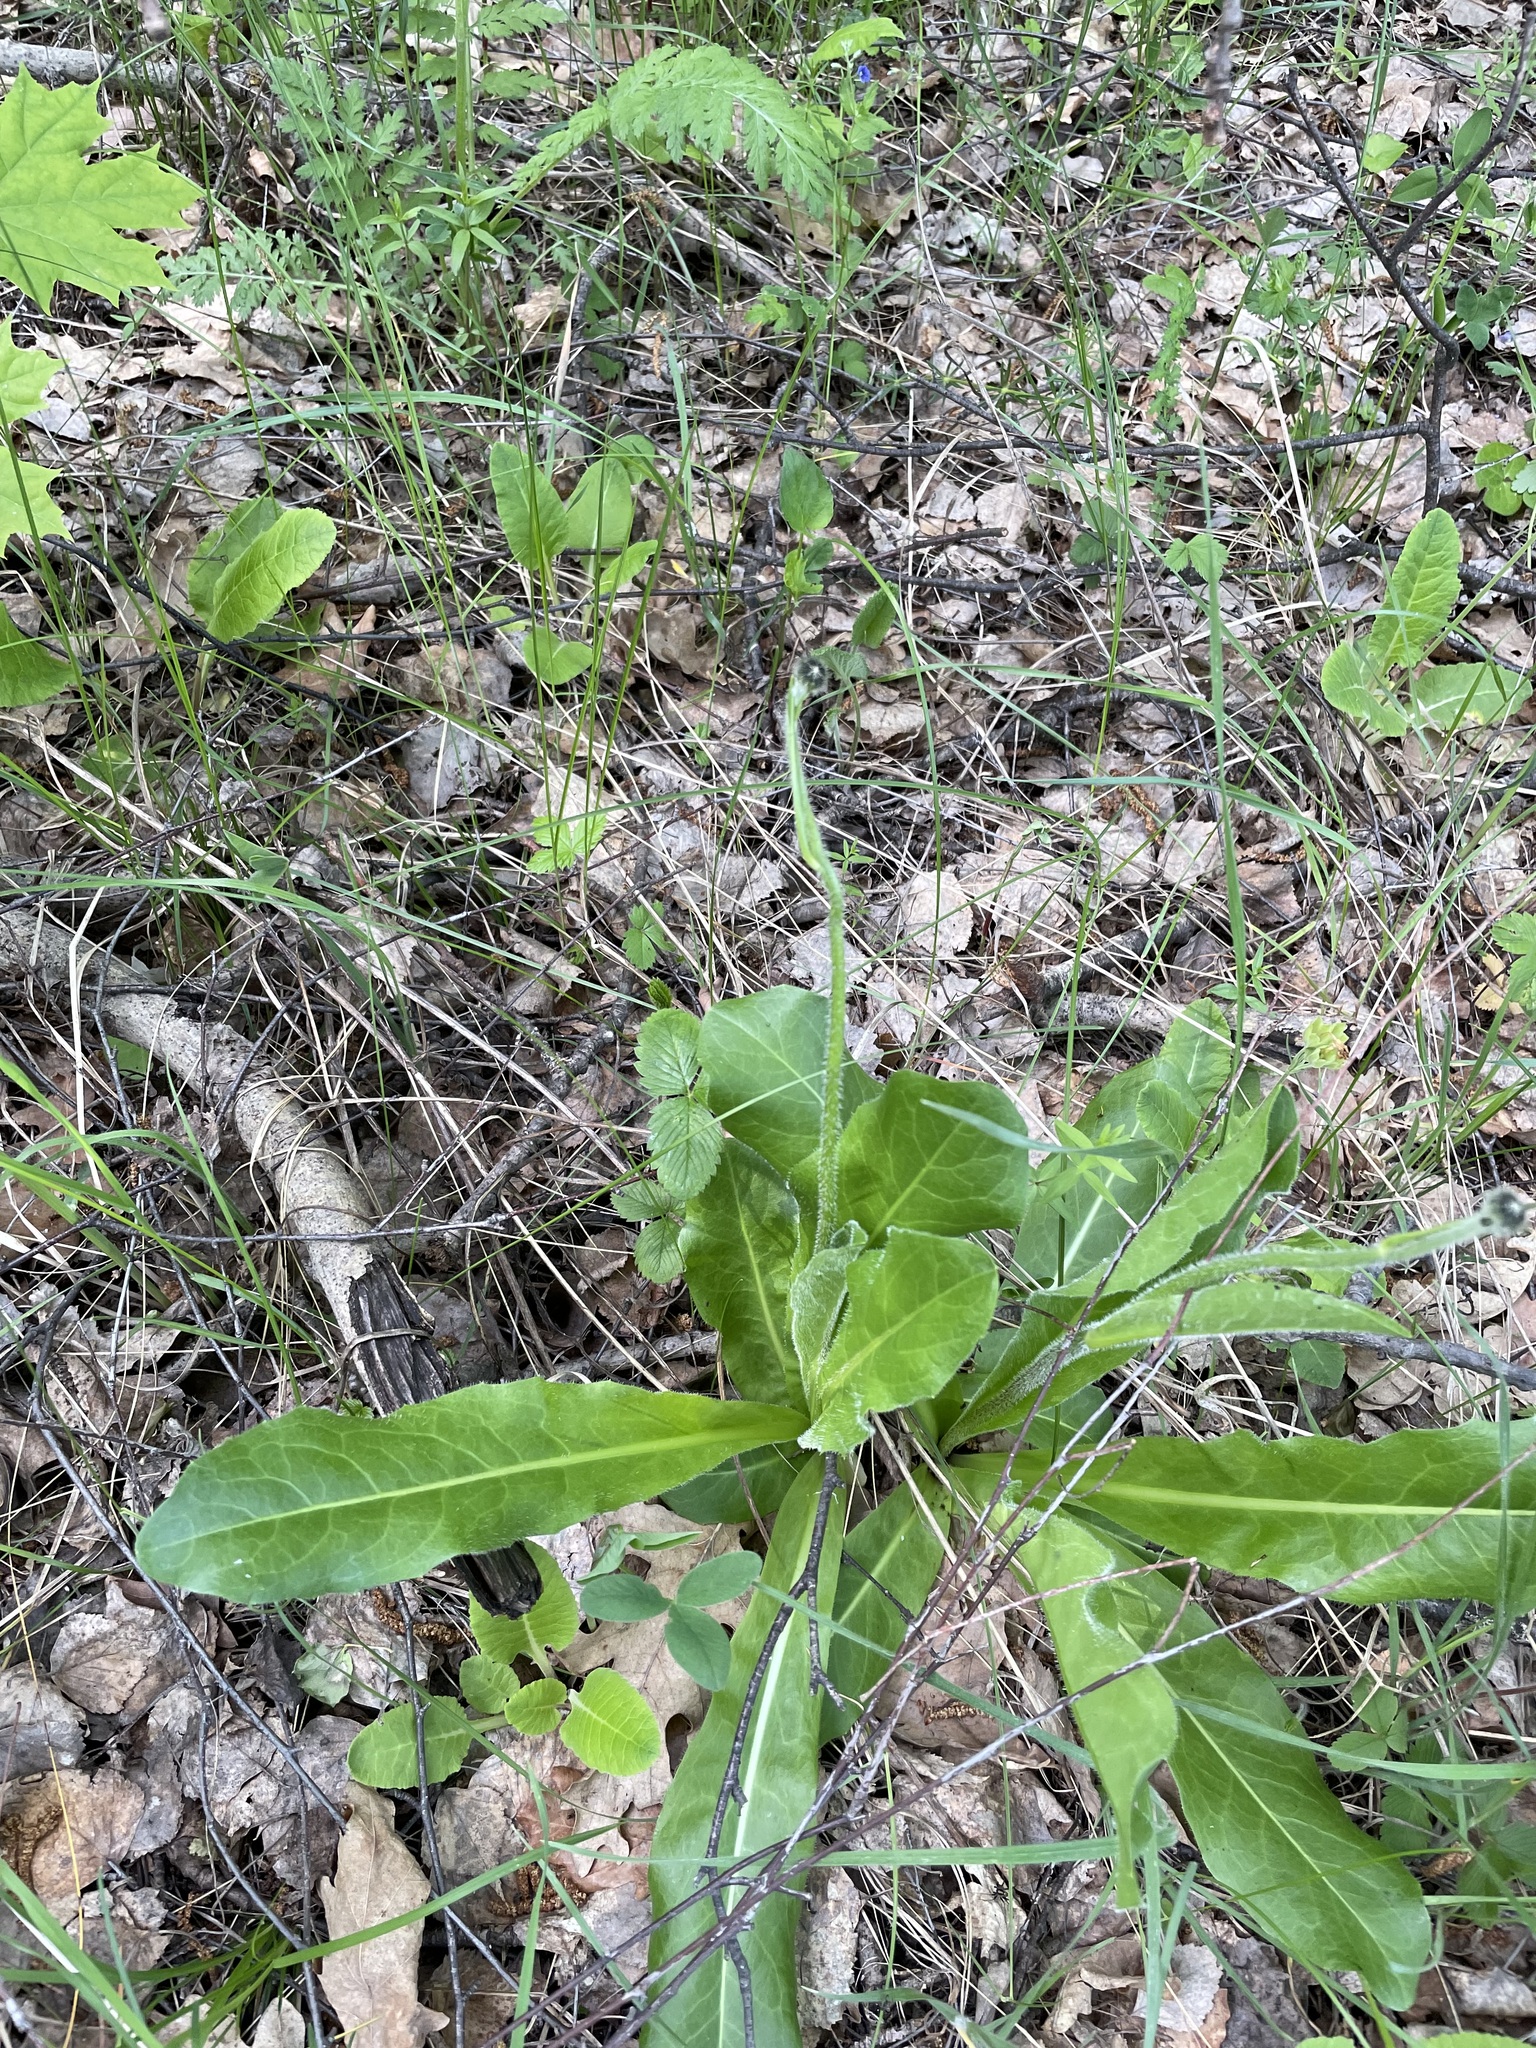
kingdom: Plantae
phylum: Tracheophyta
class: Magnoliopsida
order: Asterales
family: Asteraceae
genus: Trommsdorffia
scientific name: Trommsdorffia maculata
